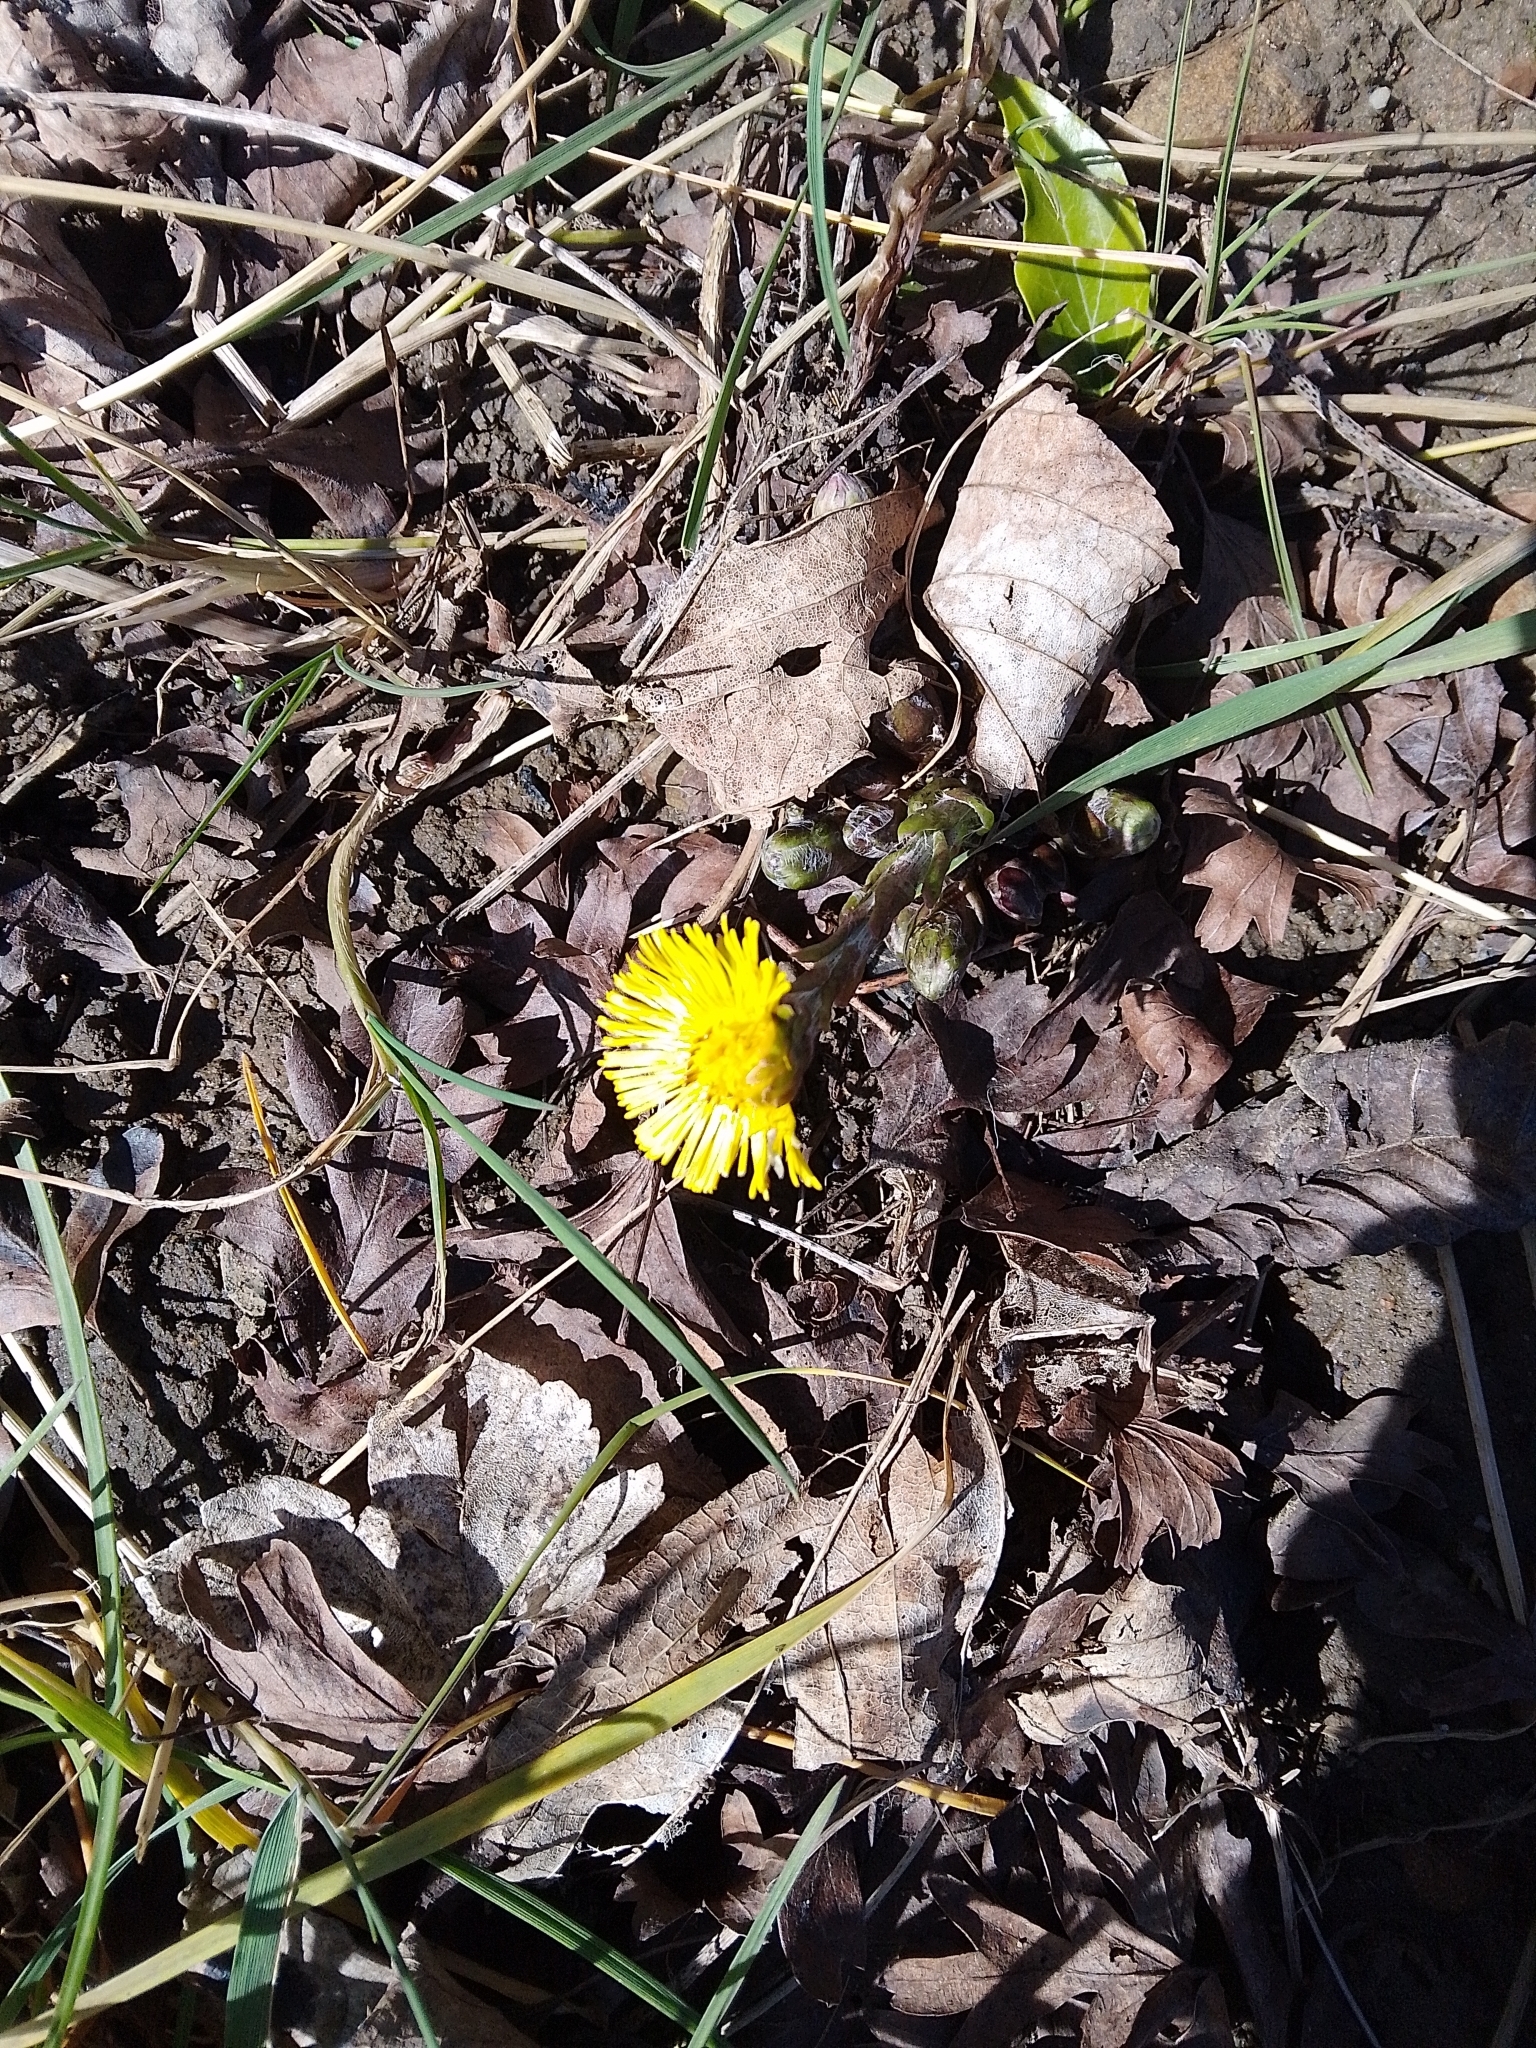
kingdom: Plantae
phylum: Tracheophyta
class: Magnoliopsida
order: Asterales
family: Asteraceae
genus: Tussilago
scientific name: Tussilago farfara
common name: Coltsfoot
